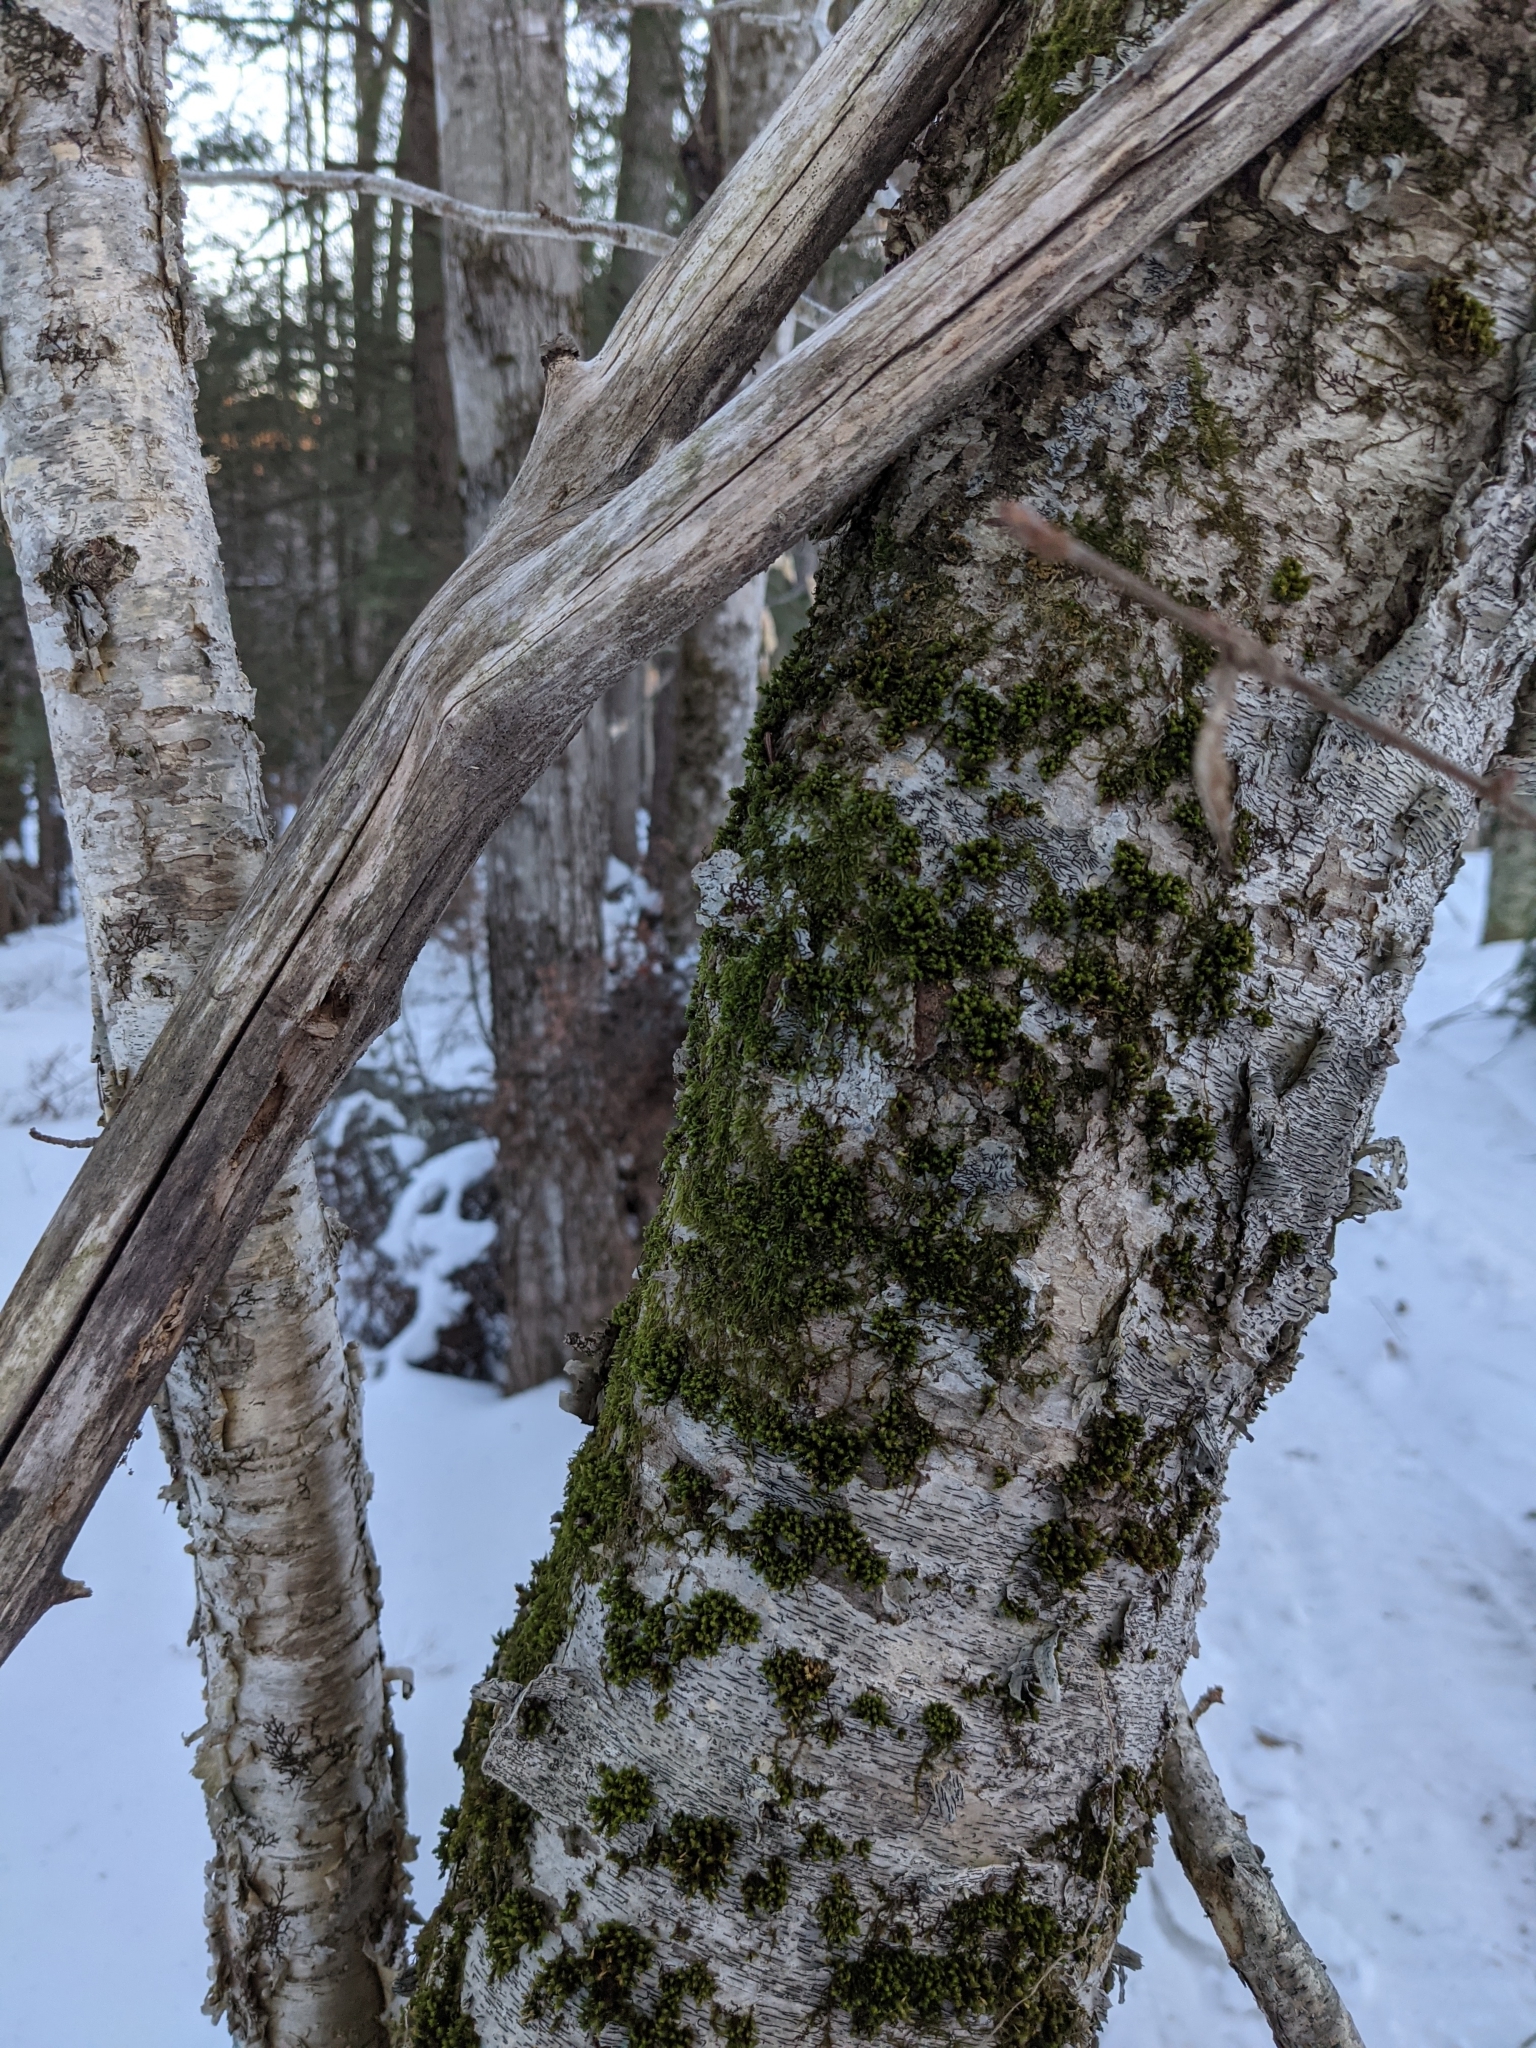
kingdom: Plantae
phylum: Bryophyta
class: Bryopsida
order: Orthotrichales
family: Orthotrichaceae
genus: Ulota
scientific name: Ulota crispa
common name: Crisped pincushion moss
